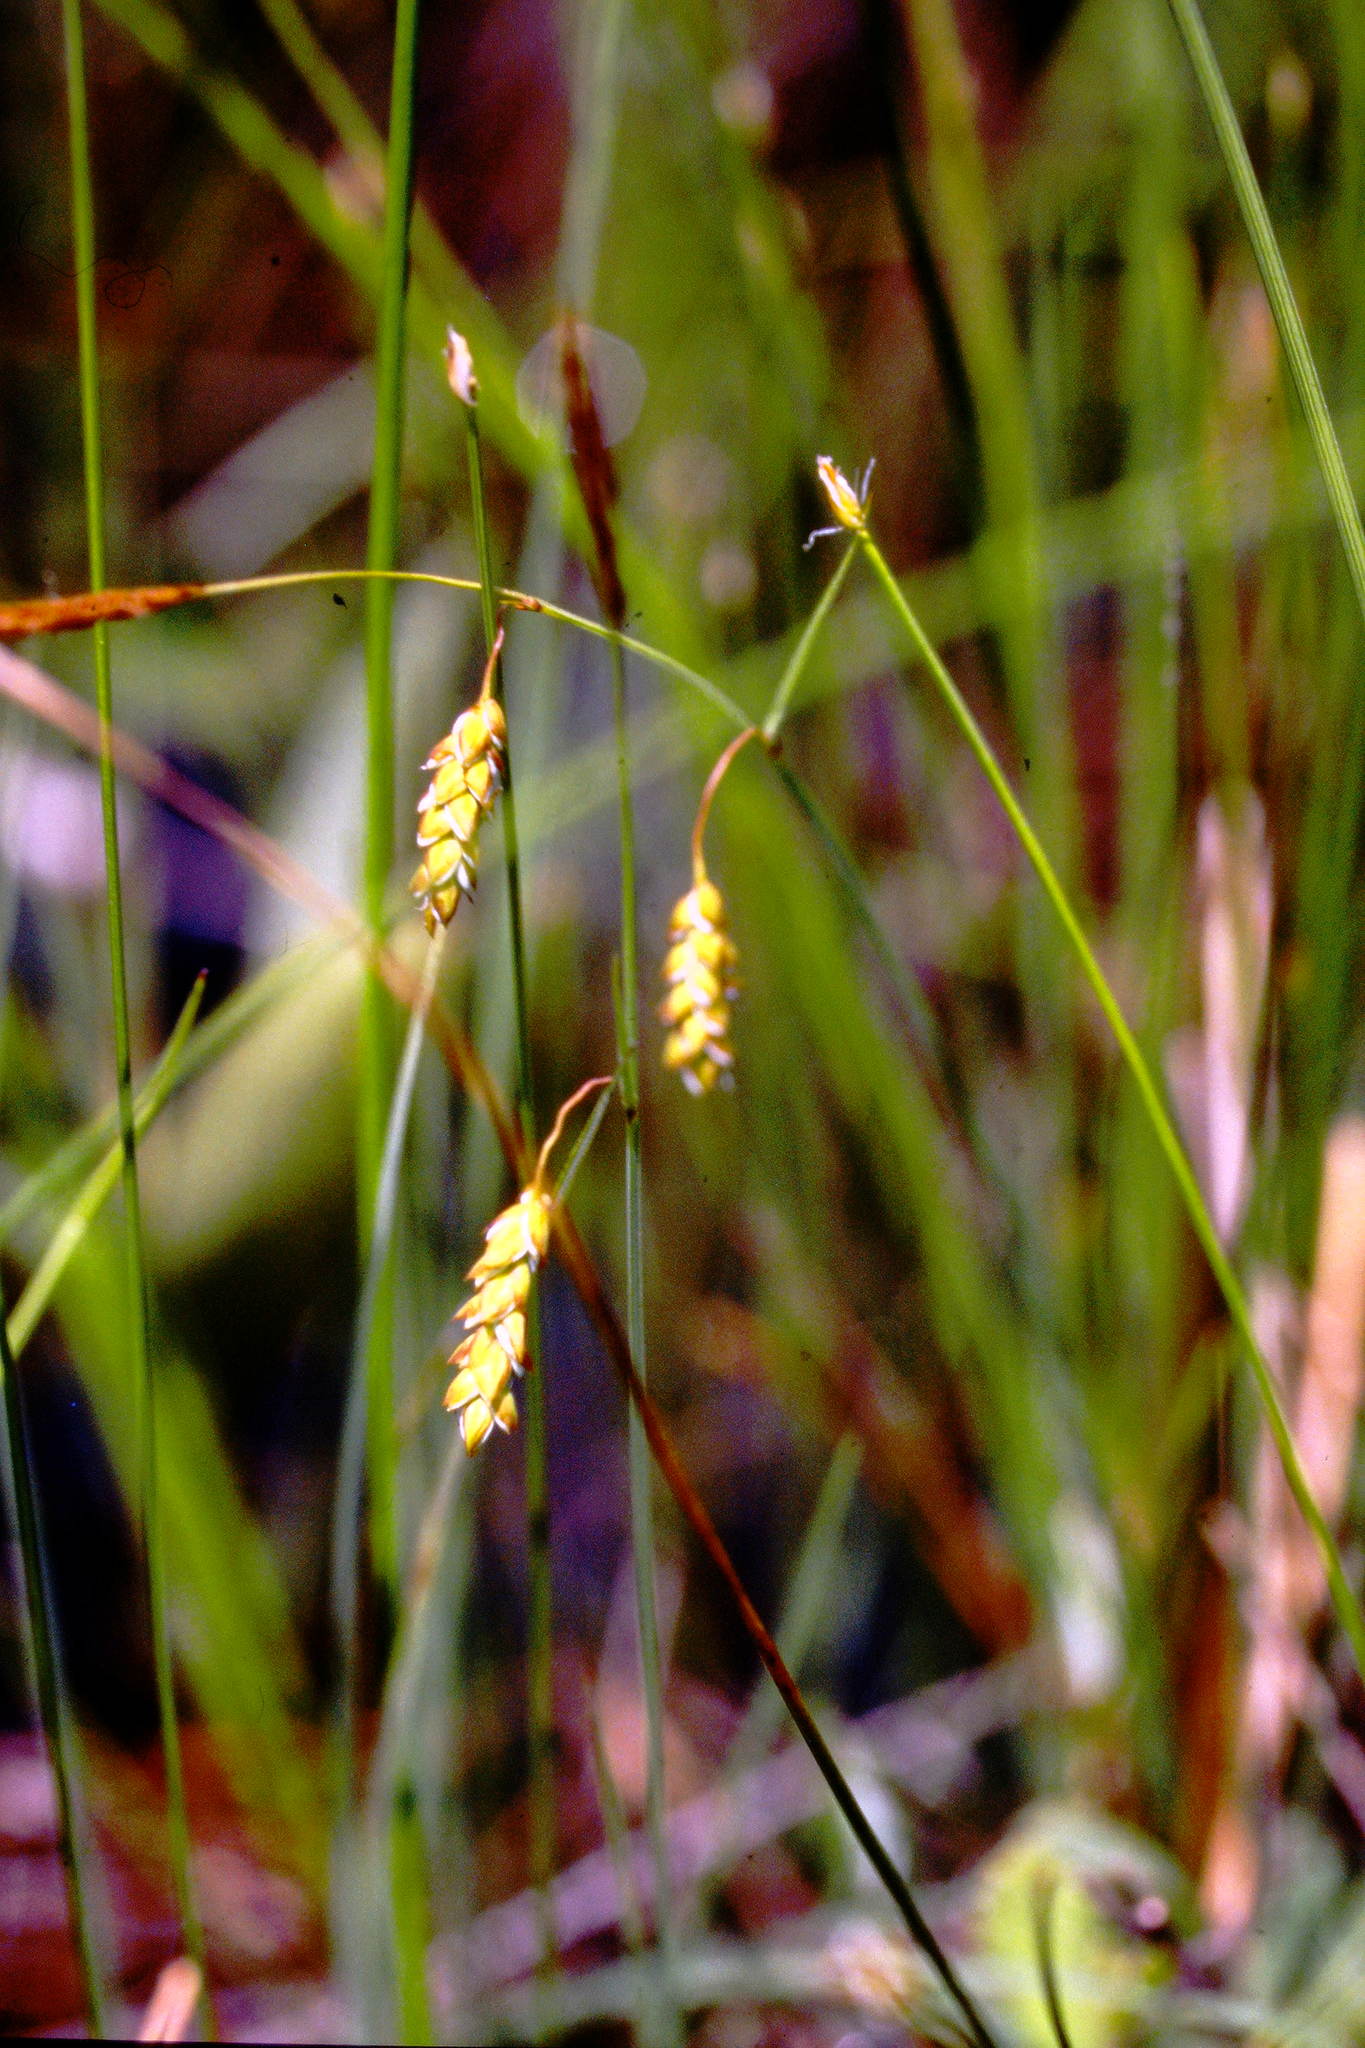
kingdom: Plantae
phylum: Tracheophyta
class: Liliopsida
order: Poales
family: Cyperaceae
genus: Carex
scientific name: Carex limosa
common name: Bog sedge
